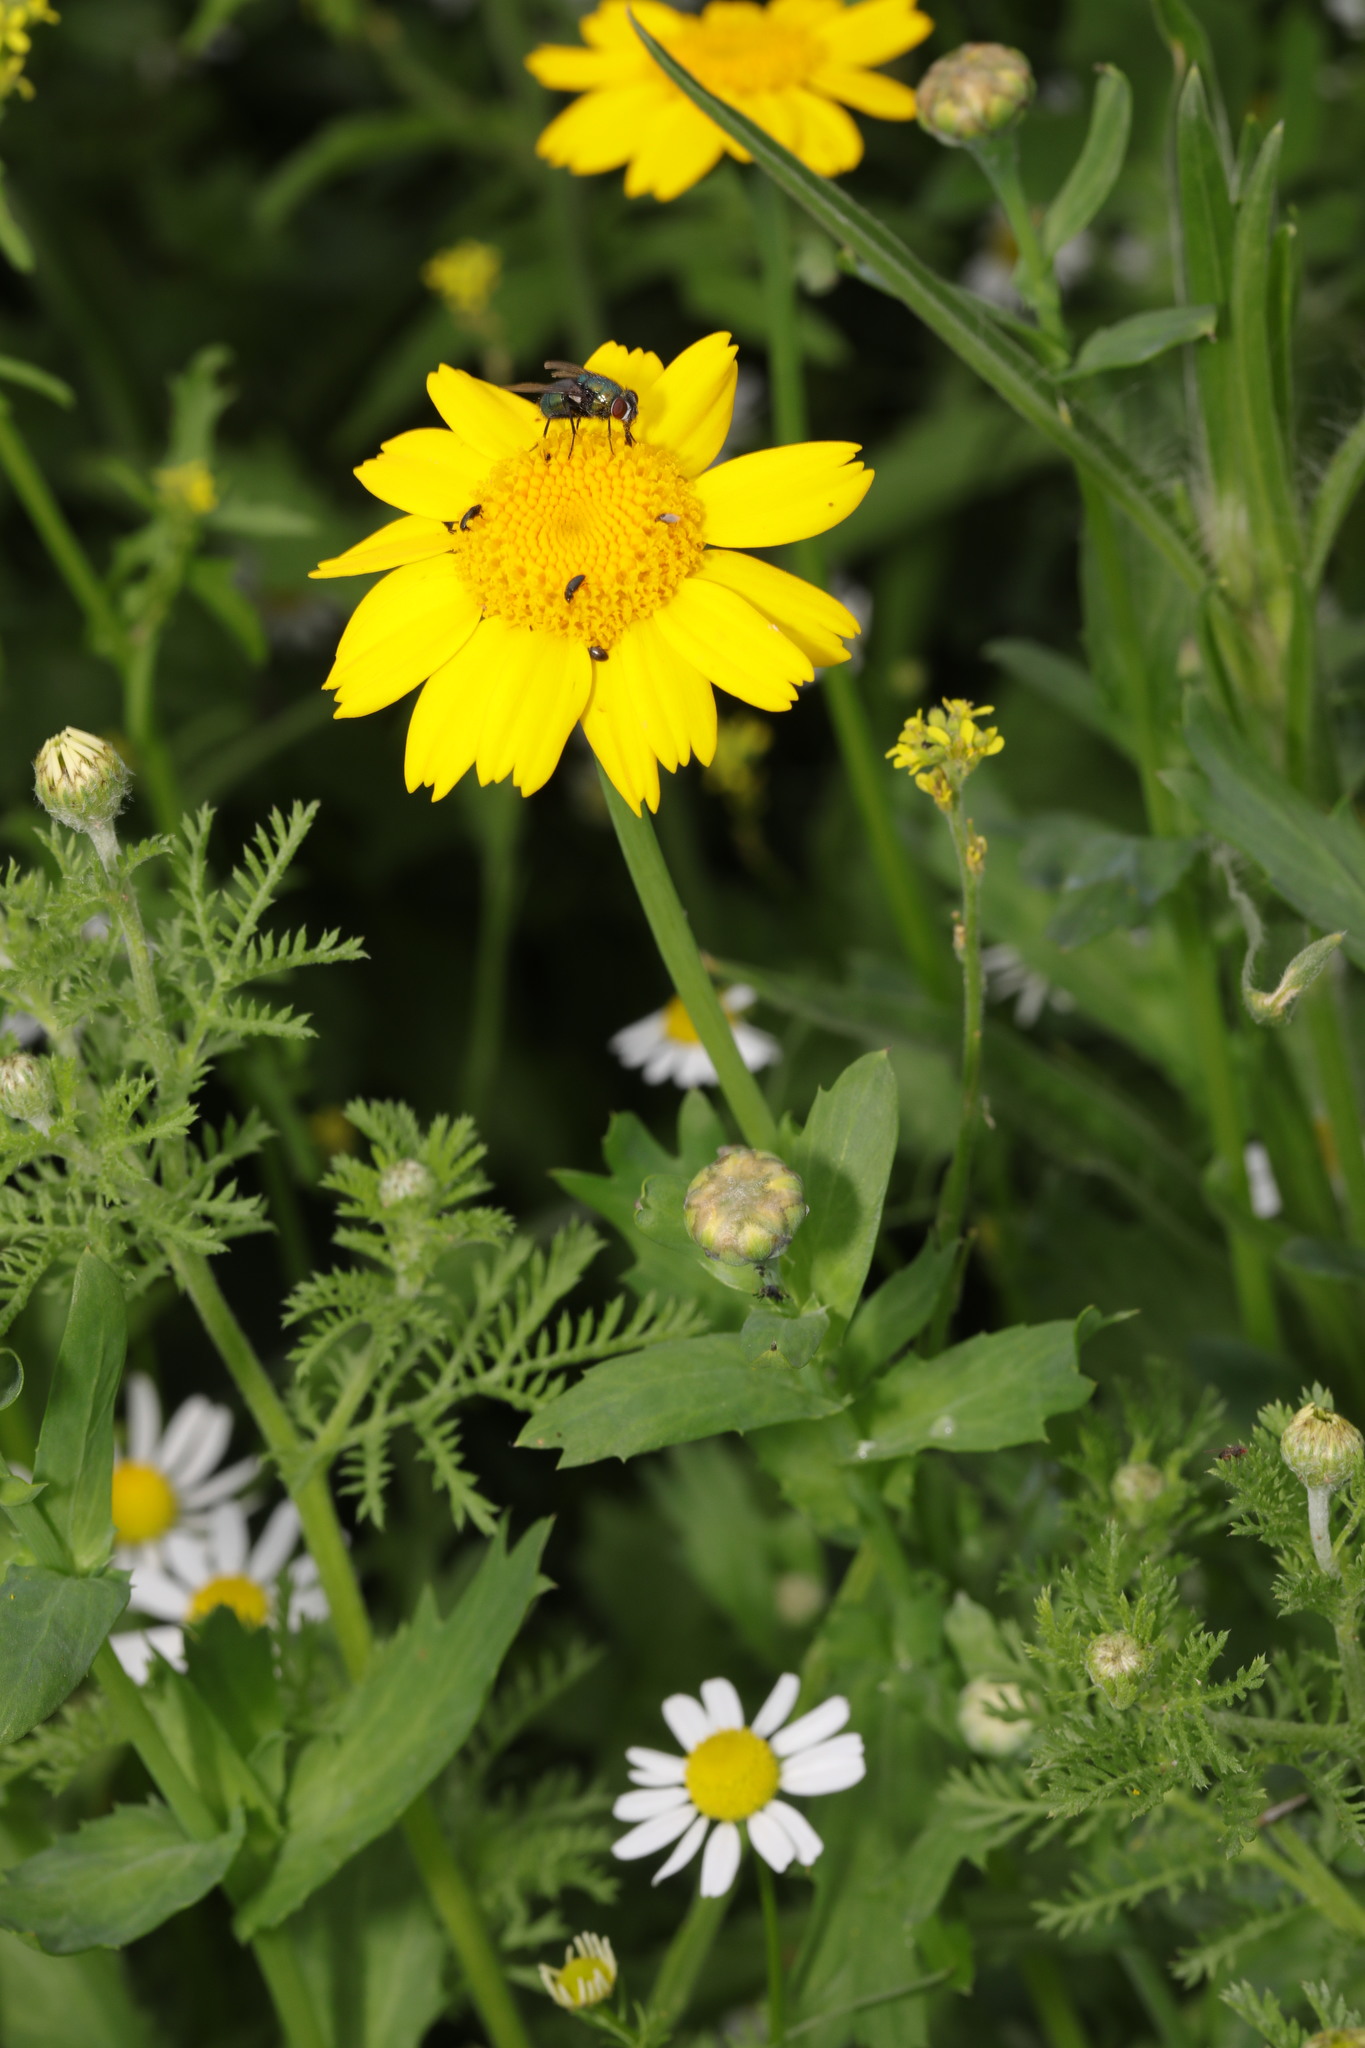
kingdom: Plantae
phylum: Tracheophyta
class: Magnoliopsida
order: Asterales
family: Asteraceae
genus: Glebionis
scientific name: Glebionis segetum
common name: Corndaisy
